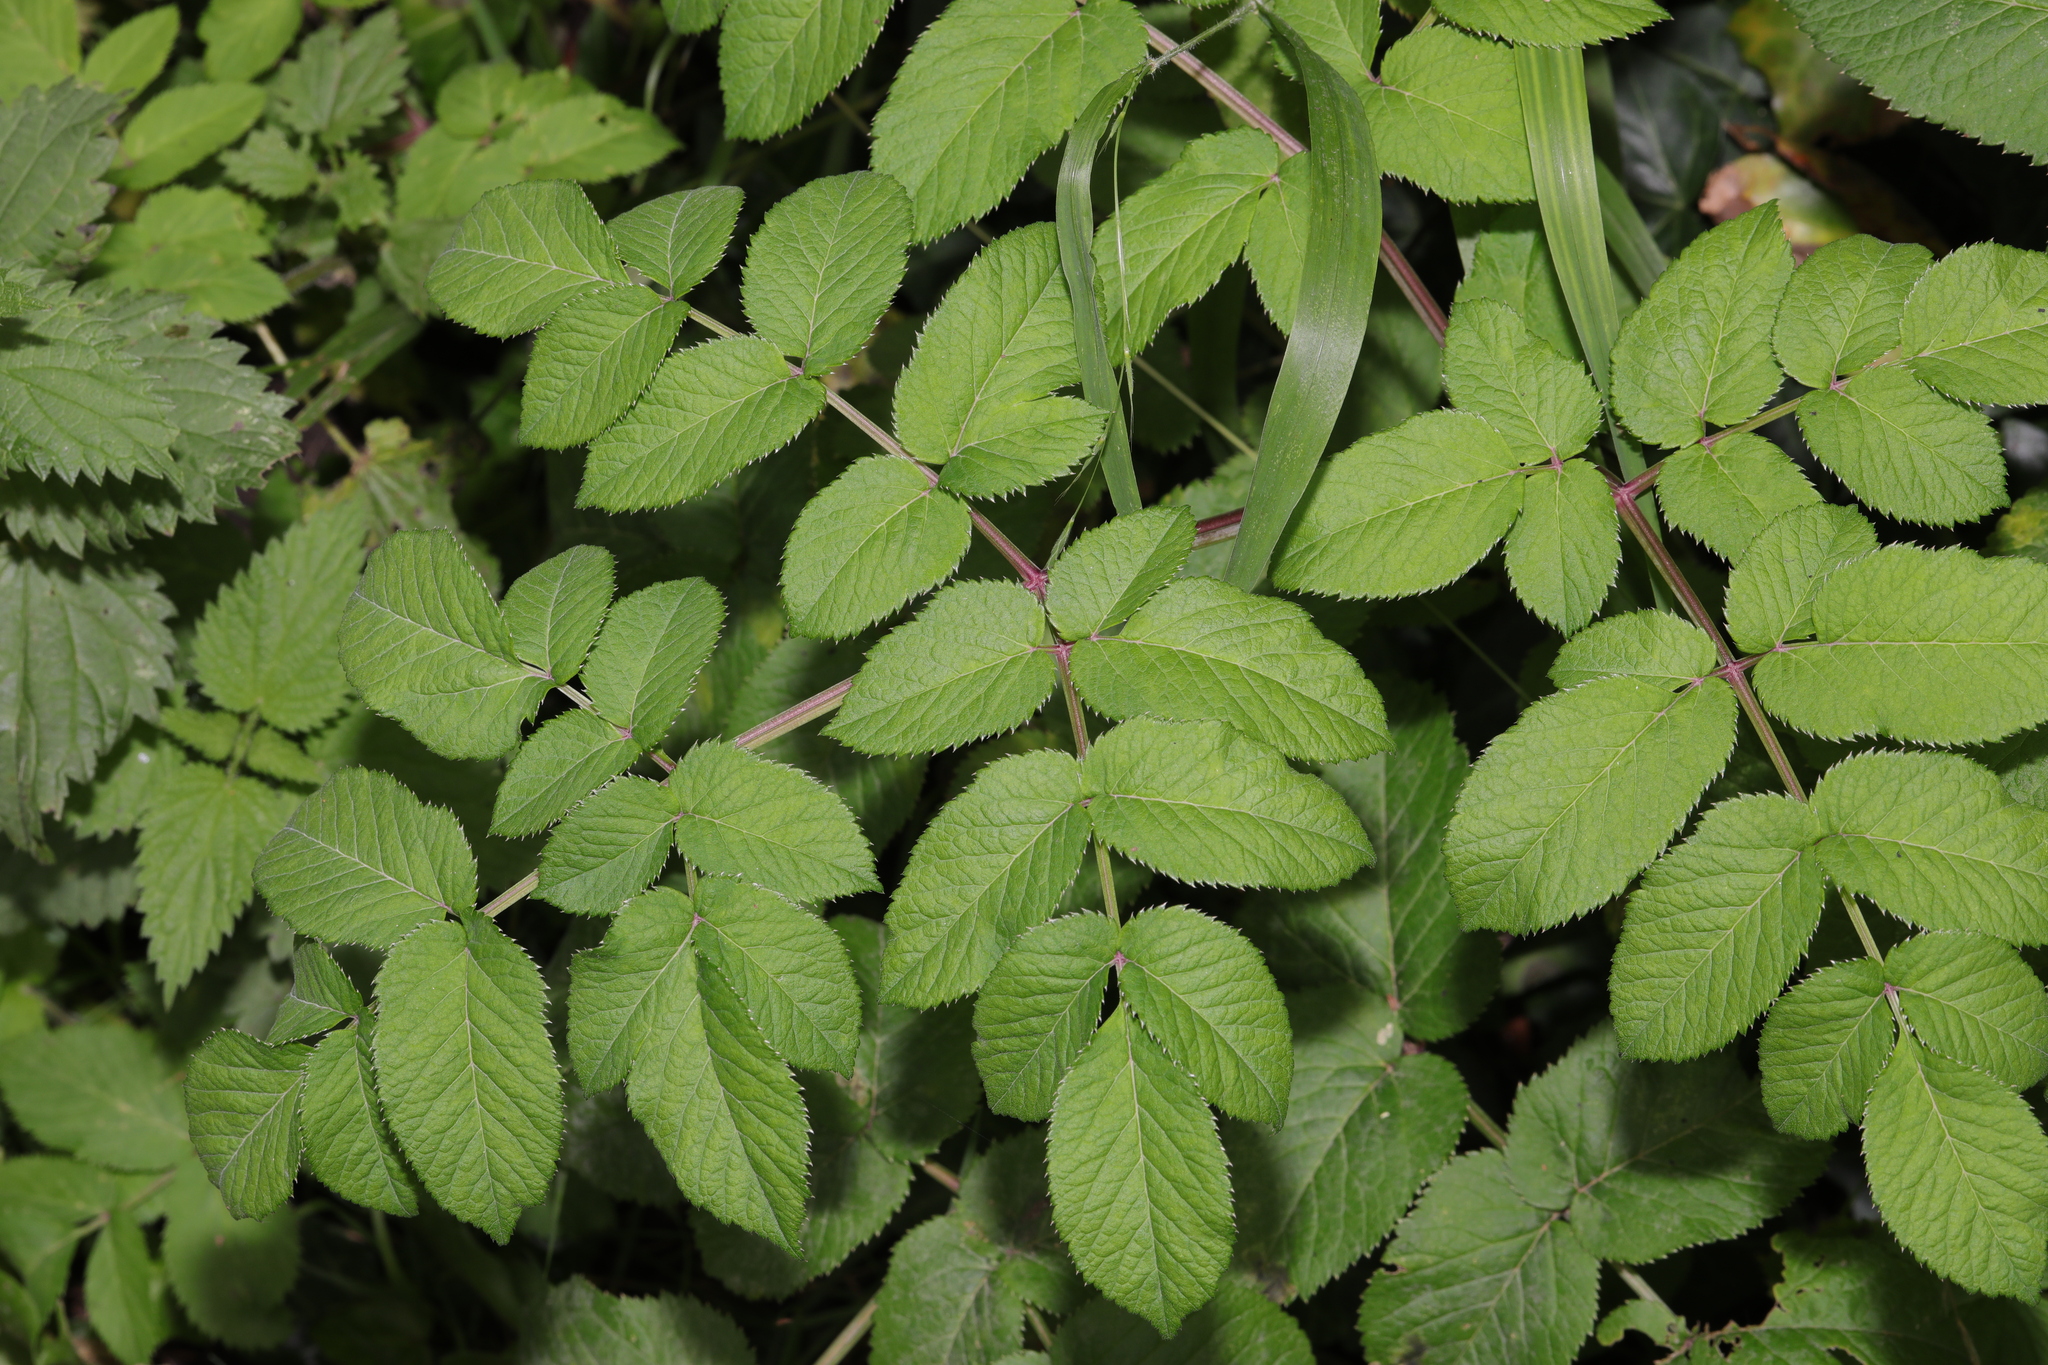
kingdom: Plantae
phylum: Tracheophyta
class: Magnoliopsida
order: Apiales
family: Apiaceae
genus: Angelica
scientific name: Angelica sylvestris
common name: Wild angelica
